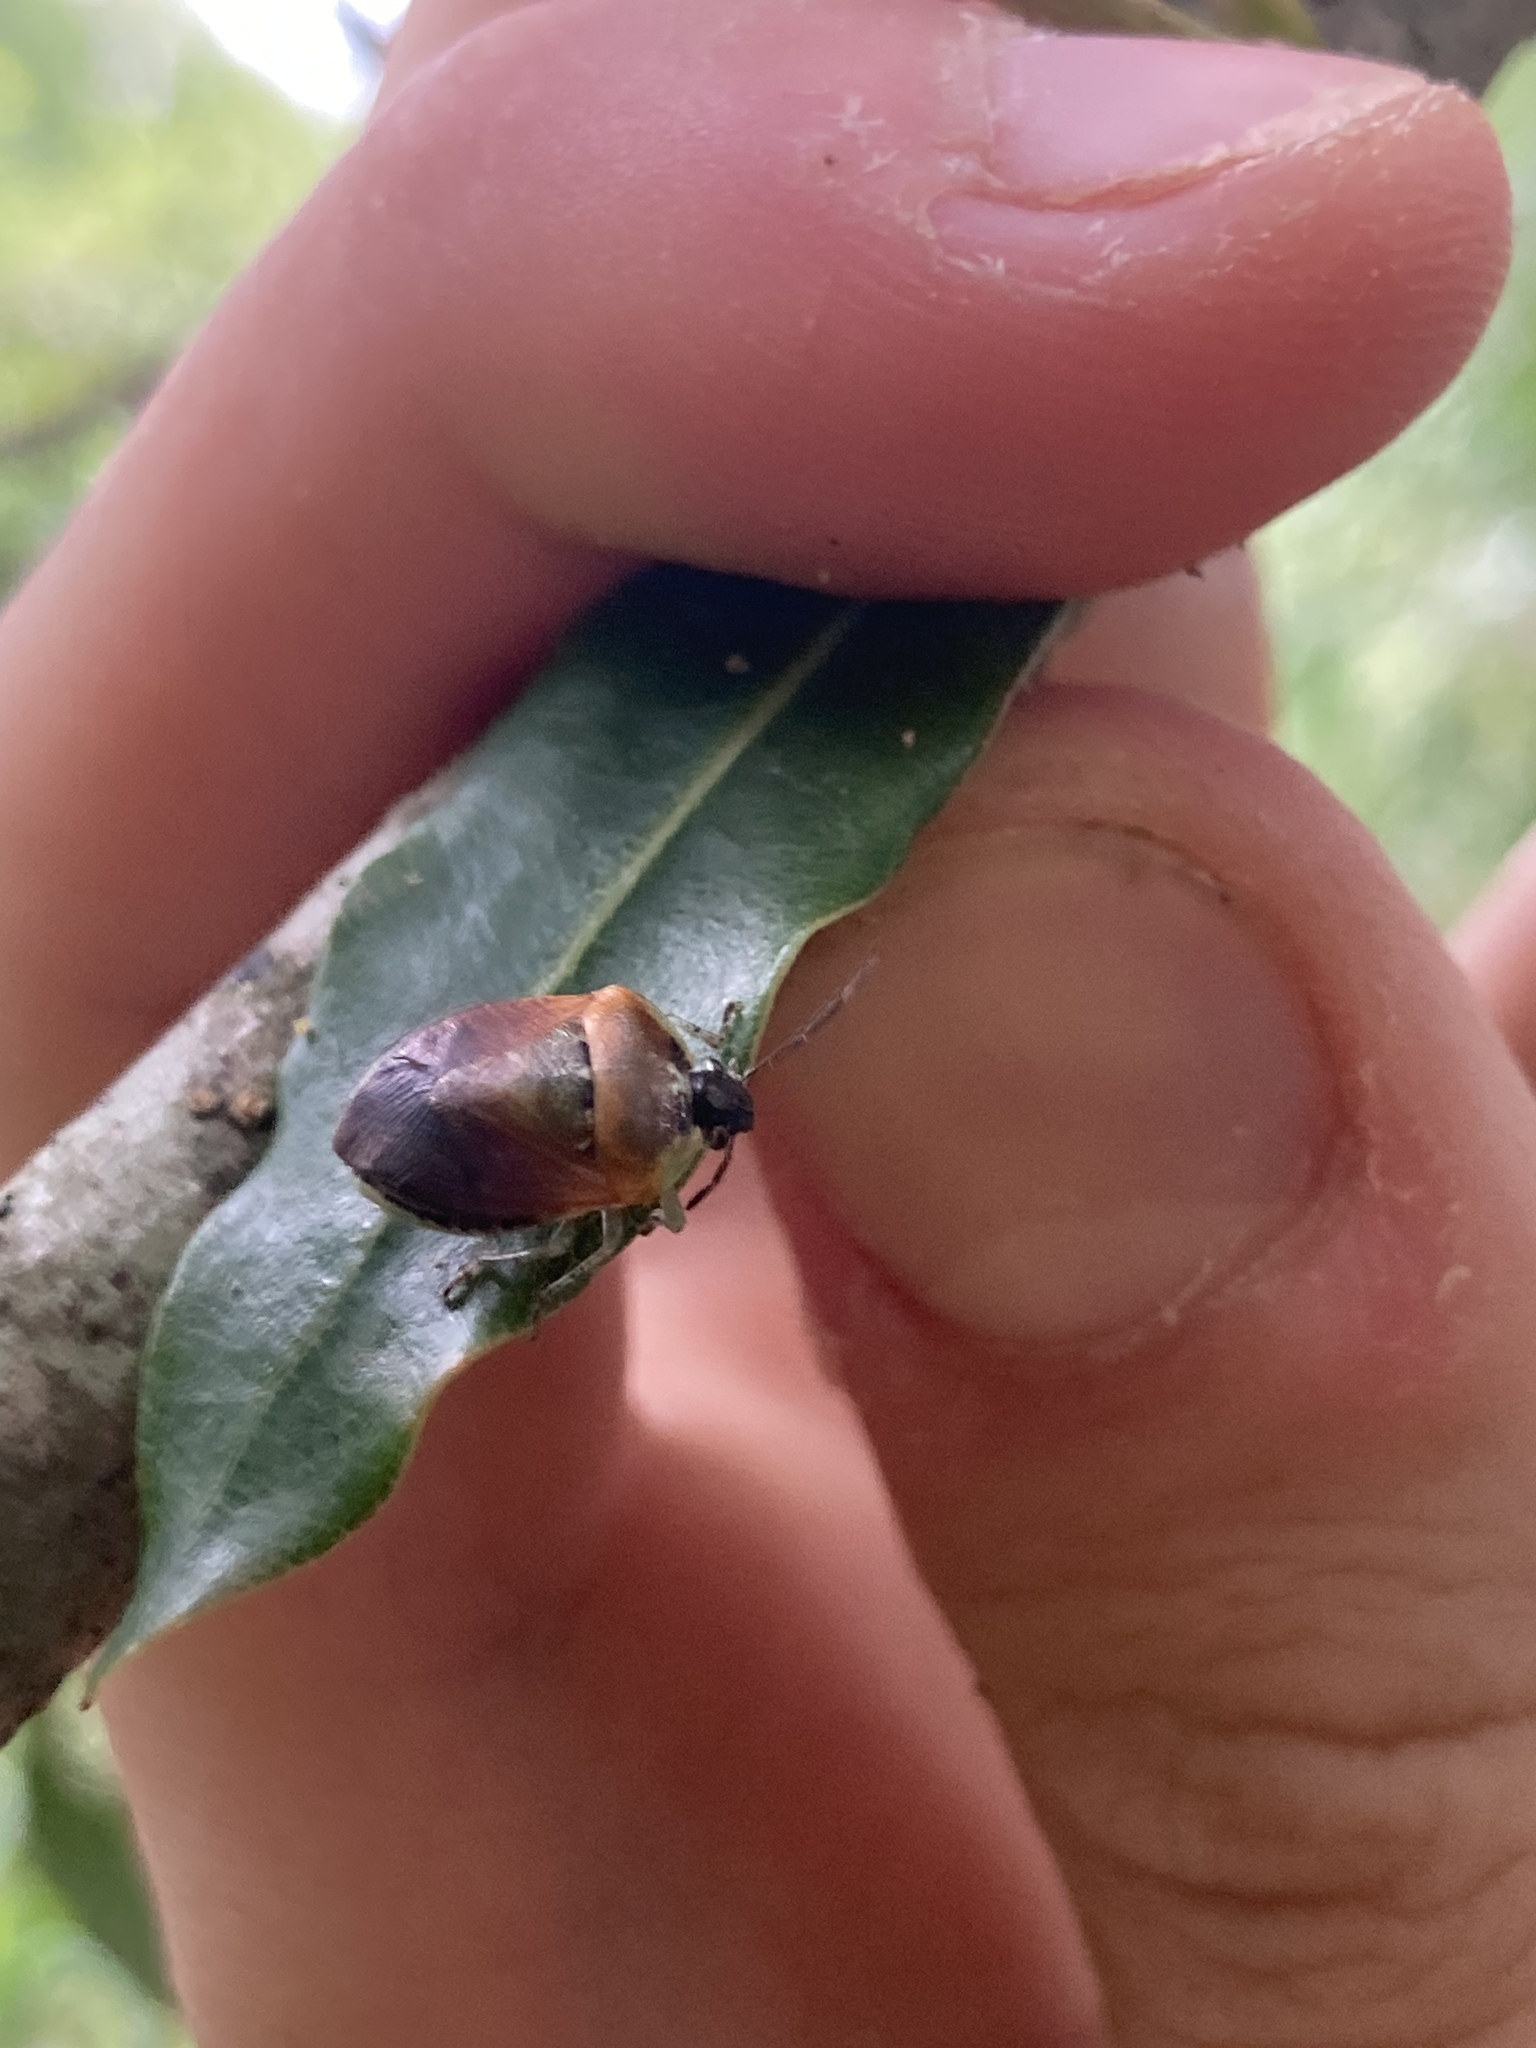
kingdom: Animalia
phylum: Arthropoda
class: Insecta
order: Hemiptera
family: Pentatomidae
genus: Monteithiella
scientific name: Monteithiella
